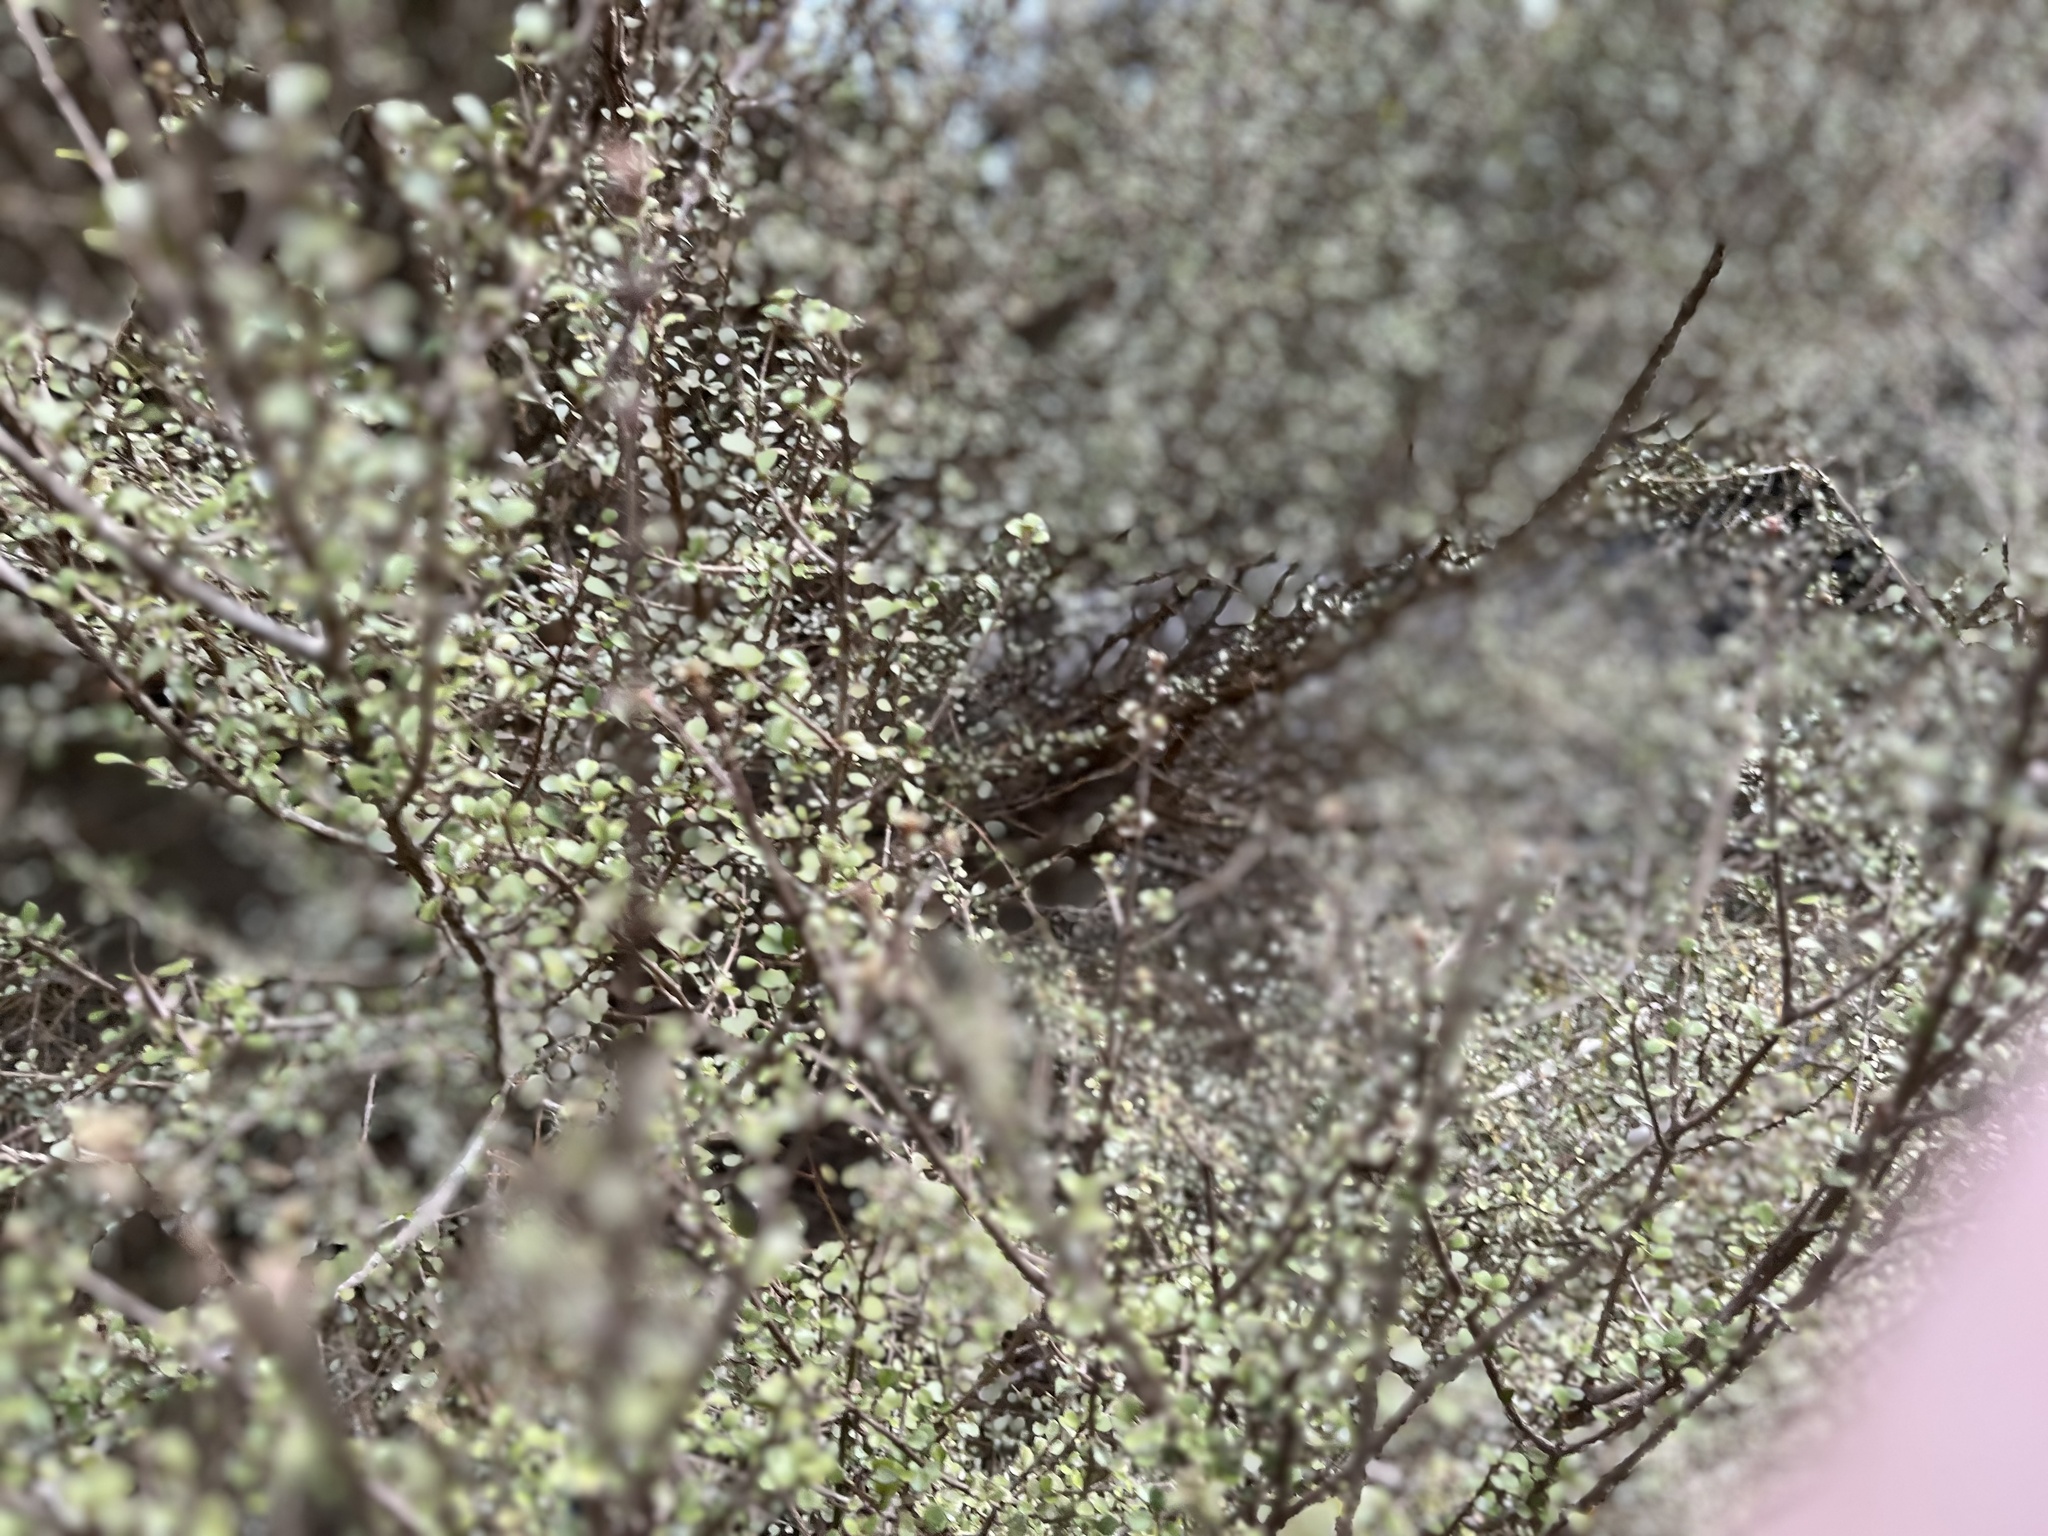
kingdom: Animalia
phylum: Arthropoda
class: Insecta
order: Hemiptera
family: Diaspididae
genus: Lindingaspis
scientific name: Lindingaspis rossi
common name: Araucaria black scale
